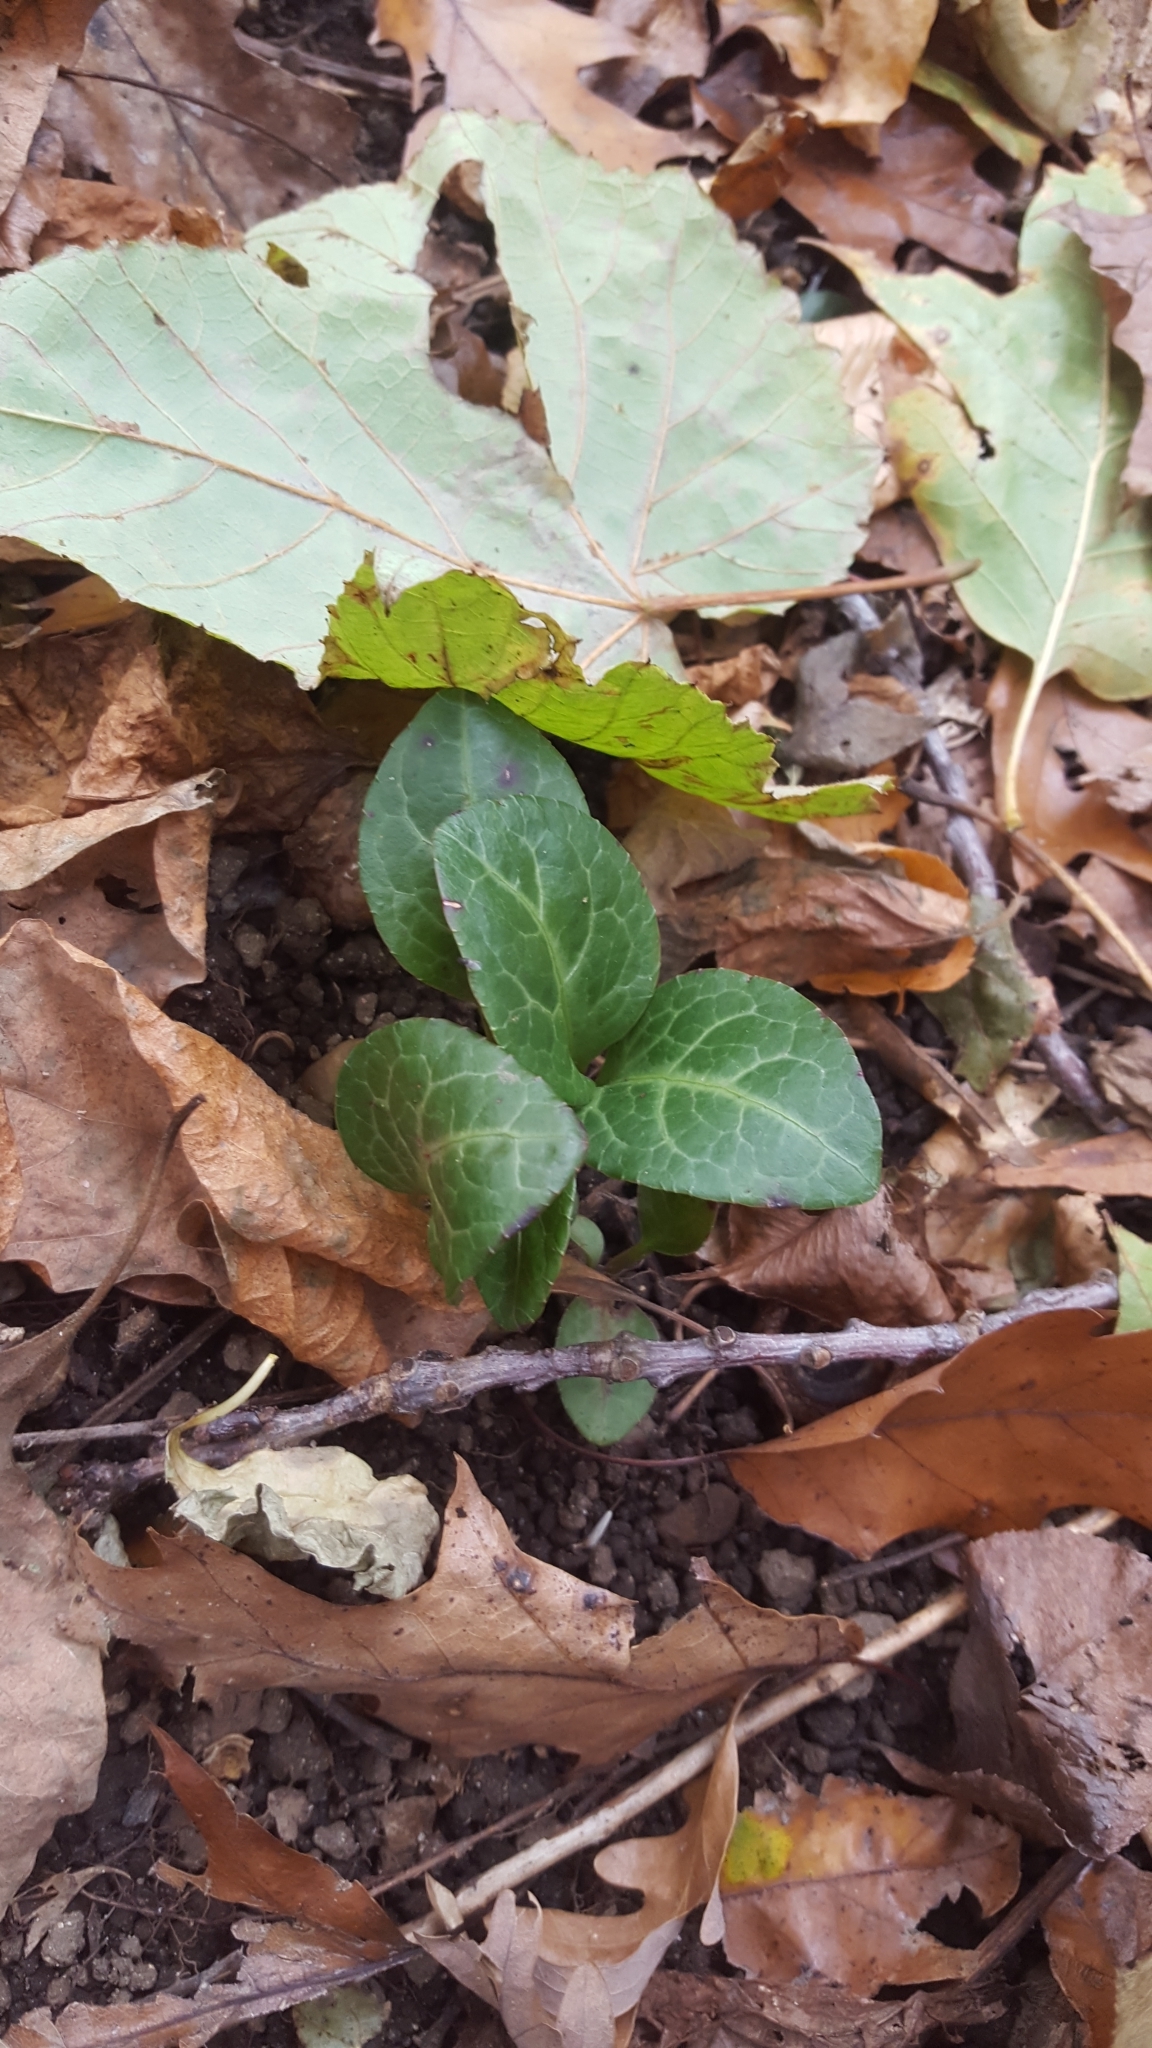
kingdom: Plantae
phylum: Tracheophyta
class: Magnoliopsida
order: Ericales
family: Ericaceae
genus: Pyrola
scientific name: Pyrola americana
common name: American wintergreen
